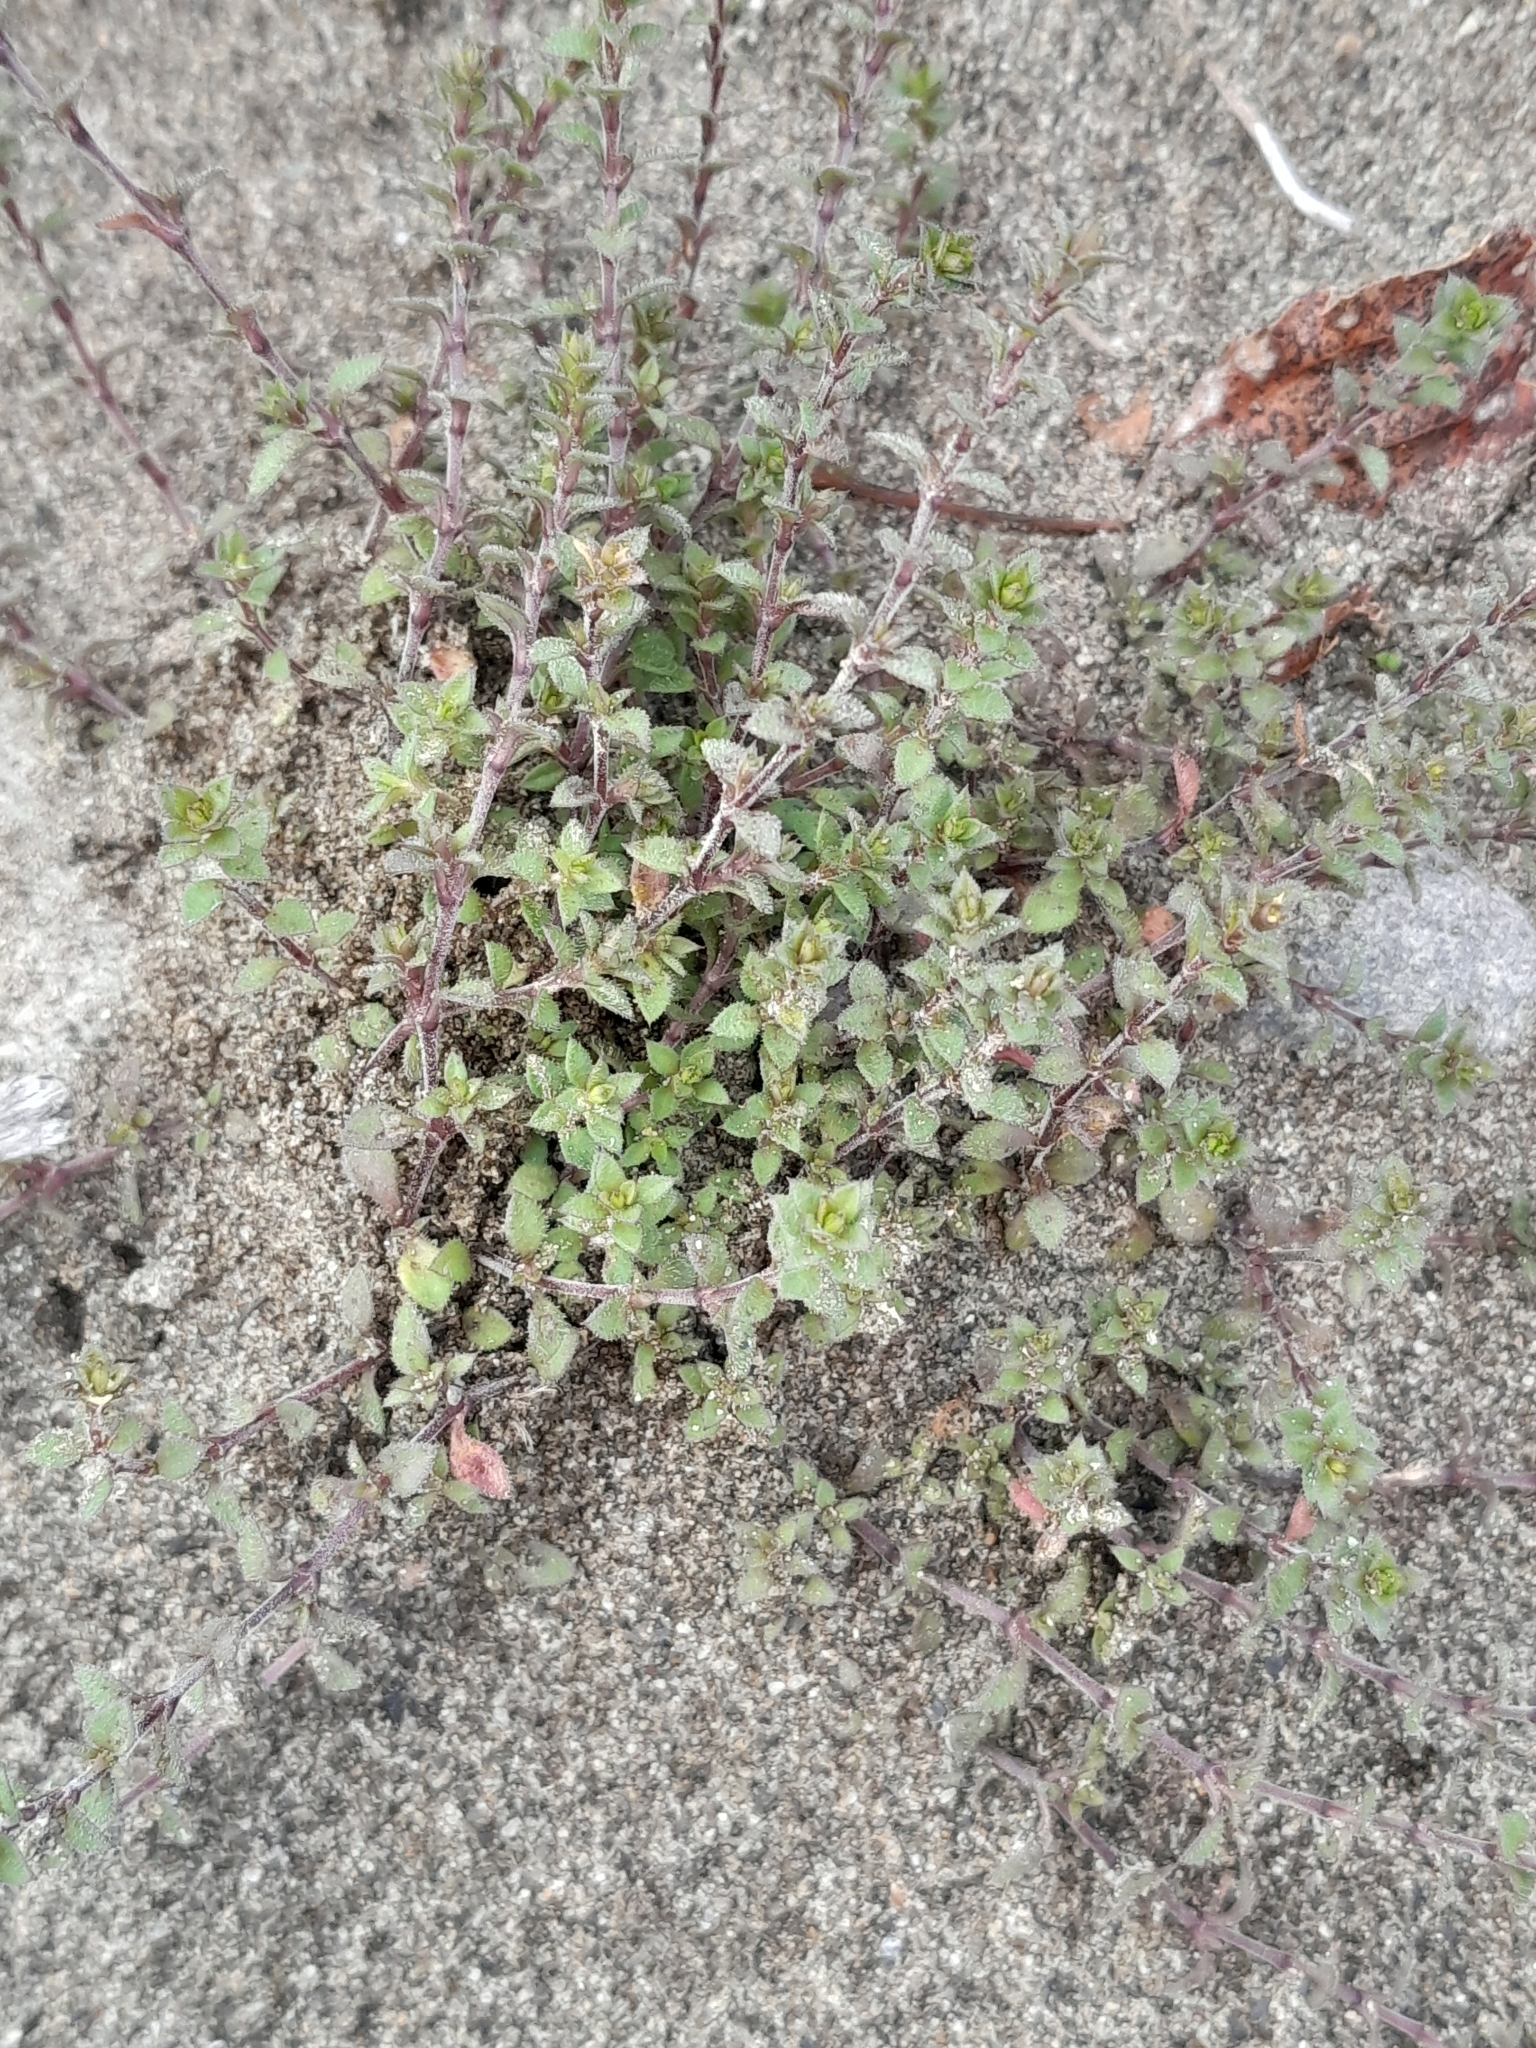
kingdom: Plantae
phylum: Tracheophyta
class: Magnoliopsida
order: Caryophyllales
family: Caryophyllaceae
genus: Arenaria
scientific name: Arenaria serpyllifolia
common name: Thyme-leaved sandwort
